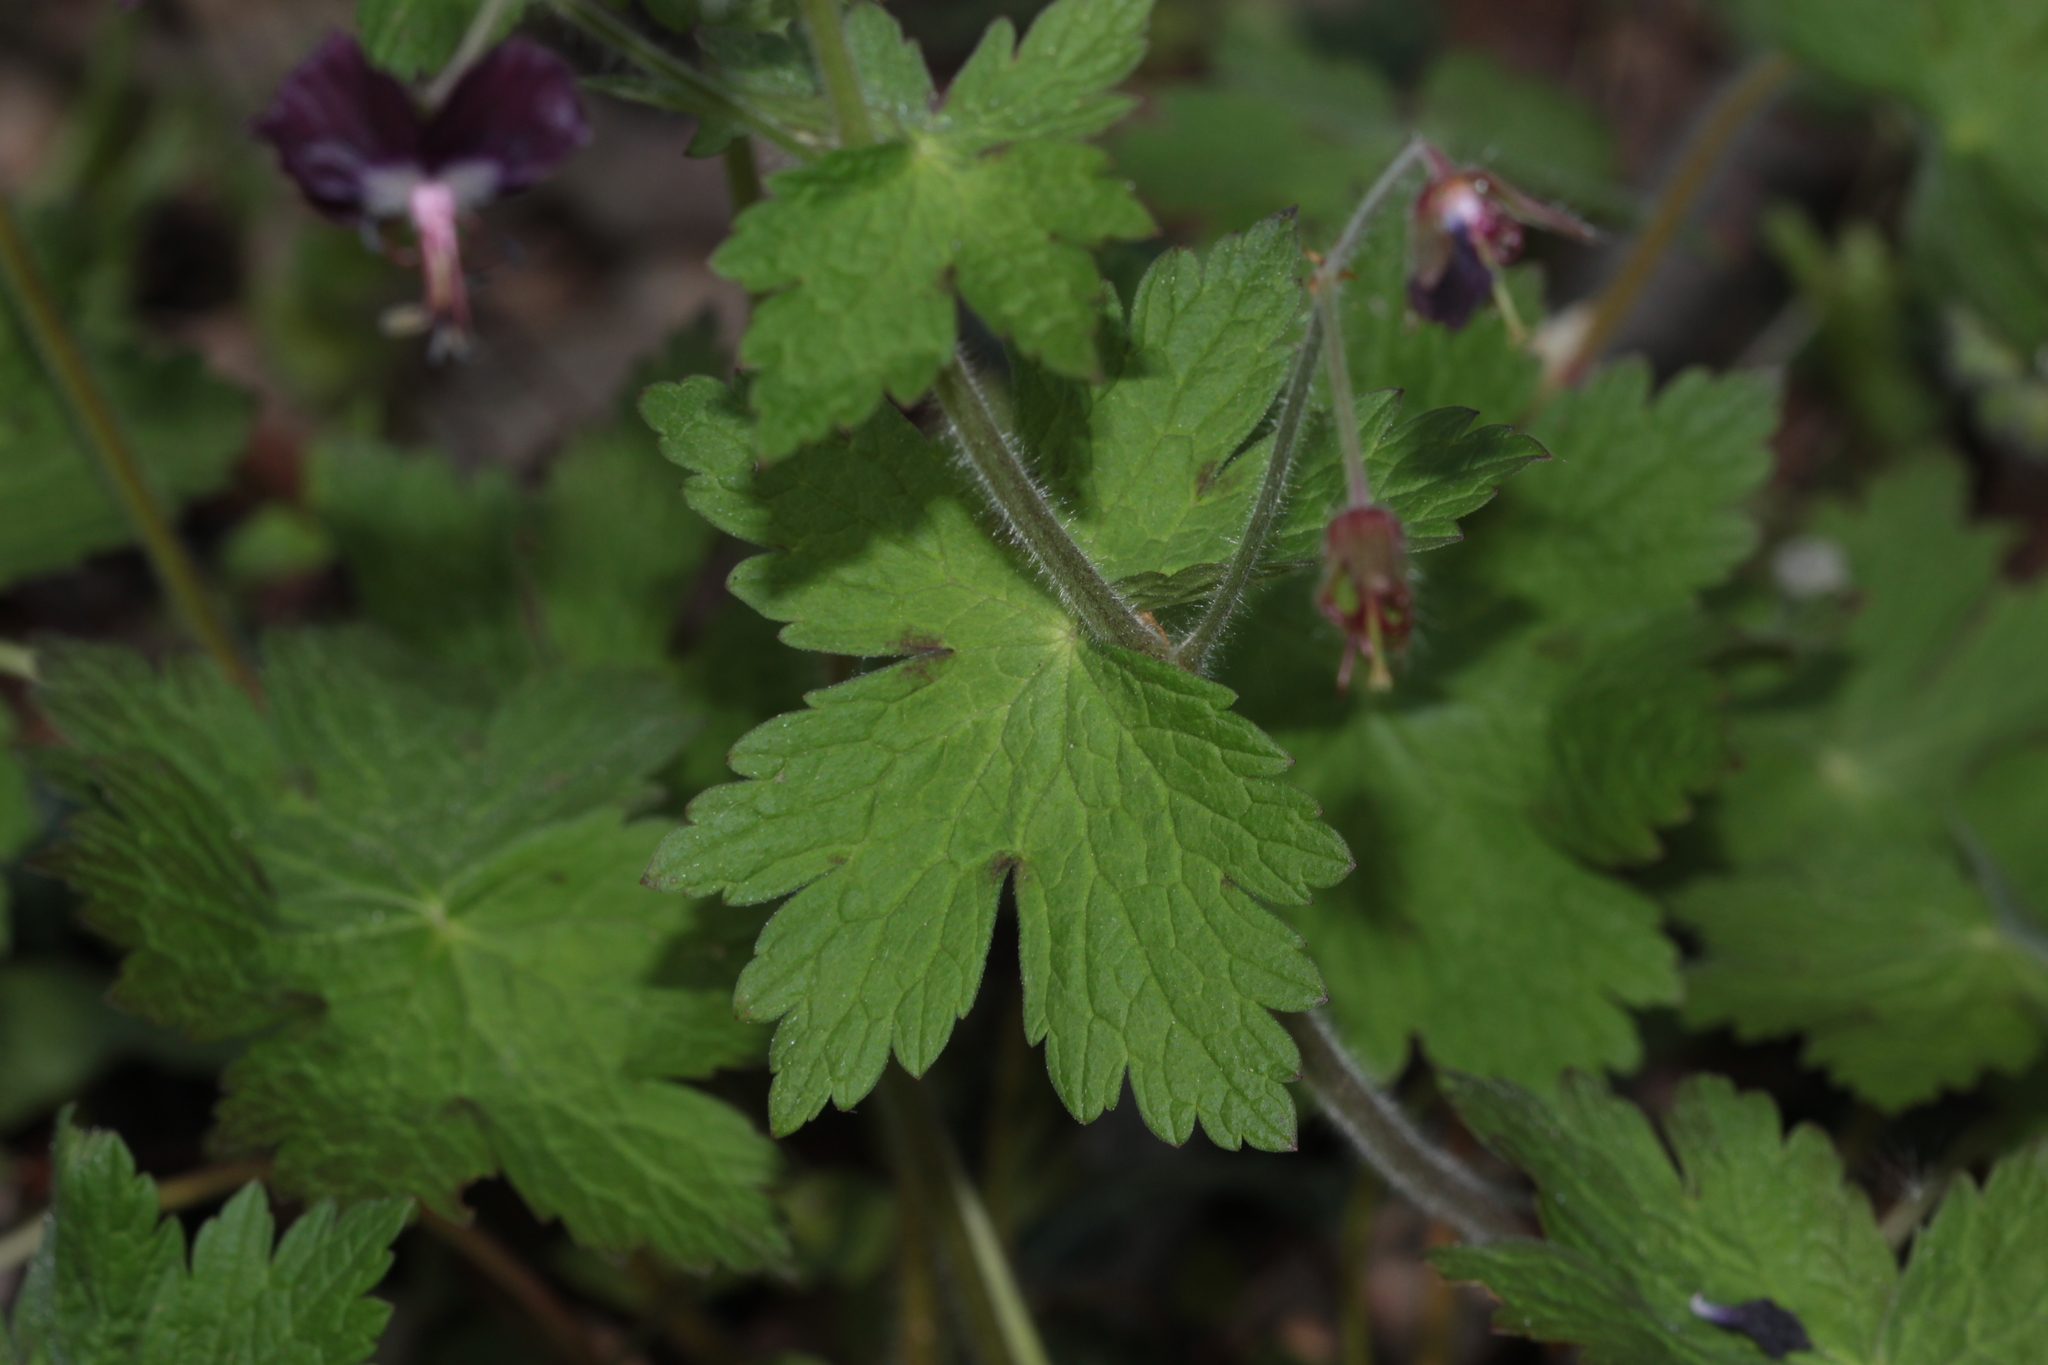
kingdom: Plantae
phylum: Tracheophyta
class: Magnoliopsida
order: Geraniales
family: Geraniaceae
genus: Geranium
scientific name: Geranium phaeum
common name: Dusky crane's-bill
